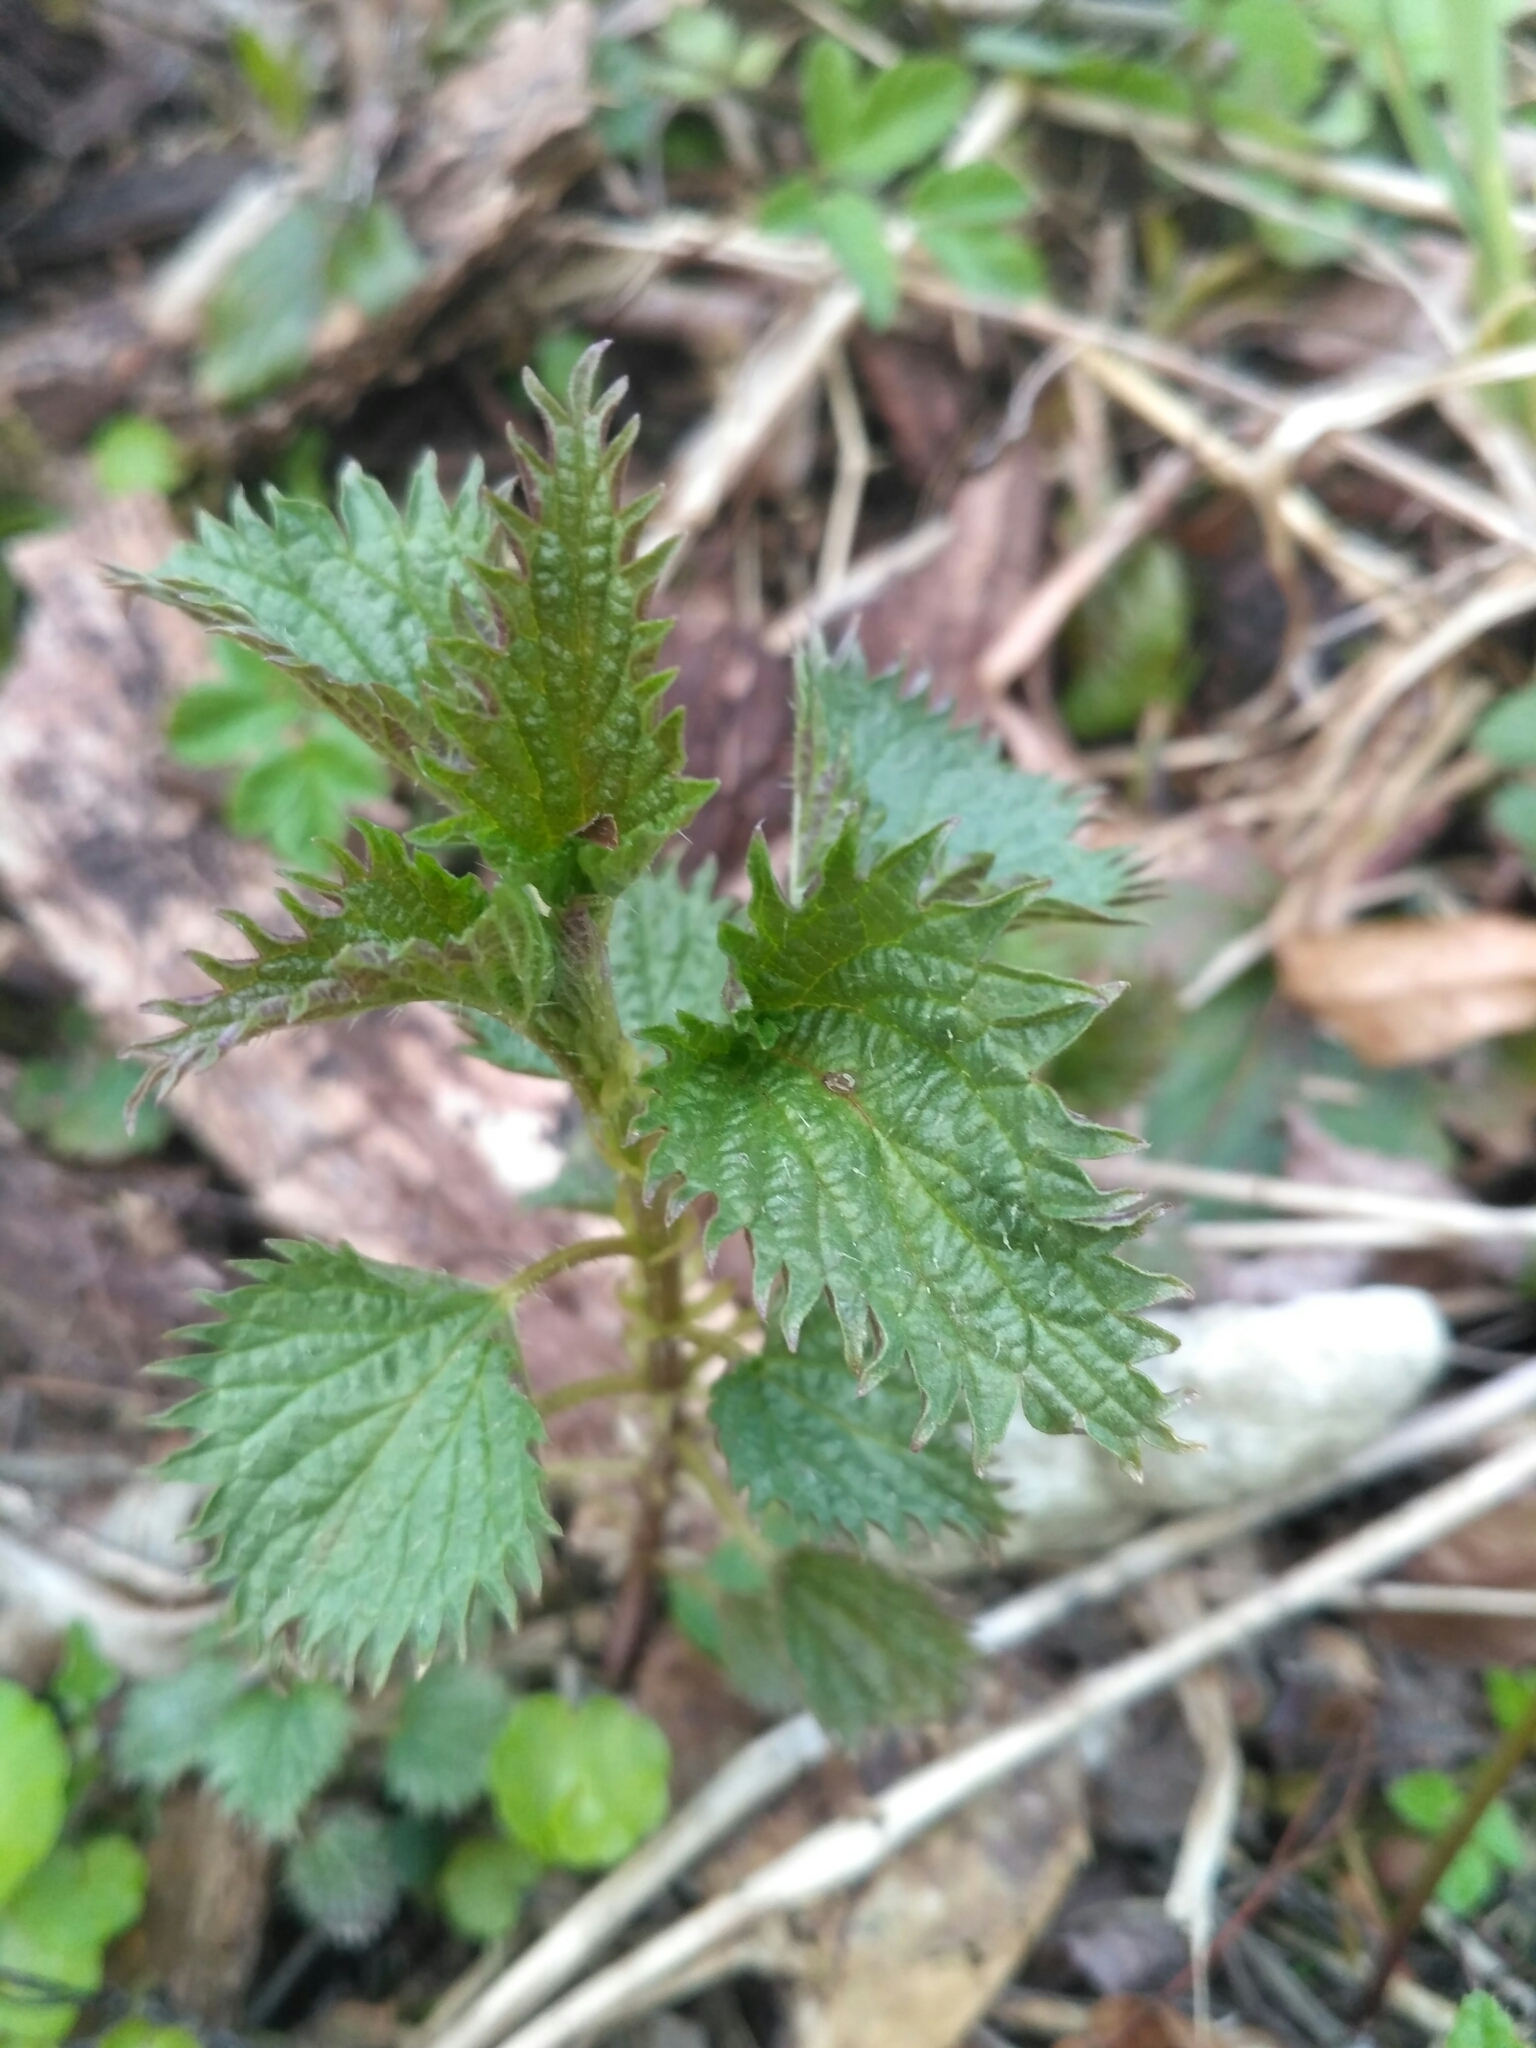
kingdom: Plantae
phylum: Tracheophyta
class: Magnoliopsida
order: Rosales
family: Urticaceae
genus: Urtica
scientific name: Urtica dioica
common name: Common nettle
